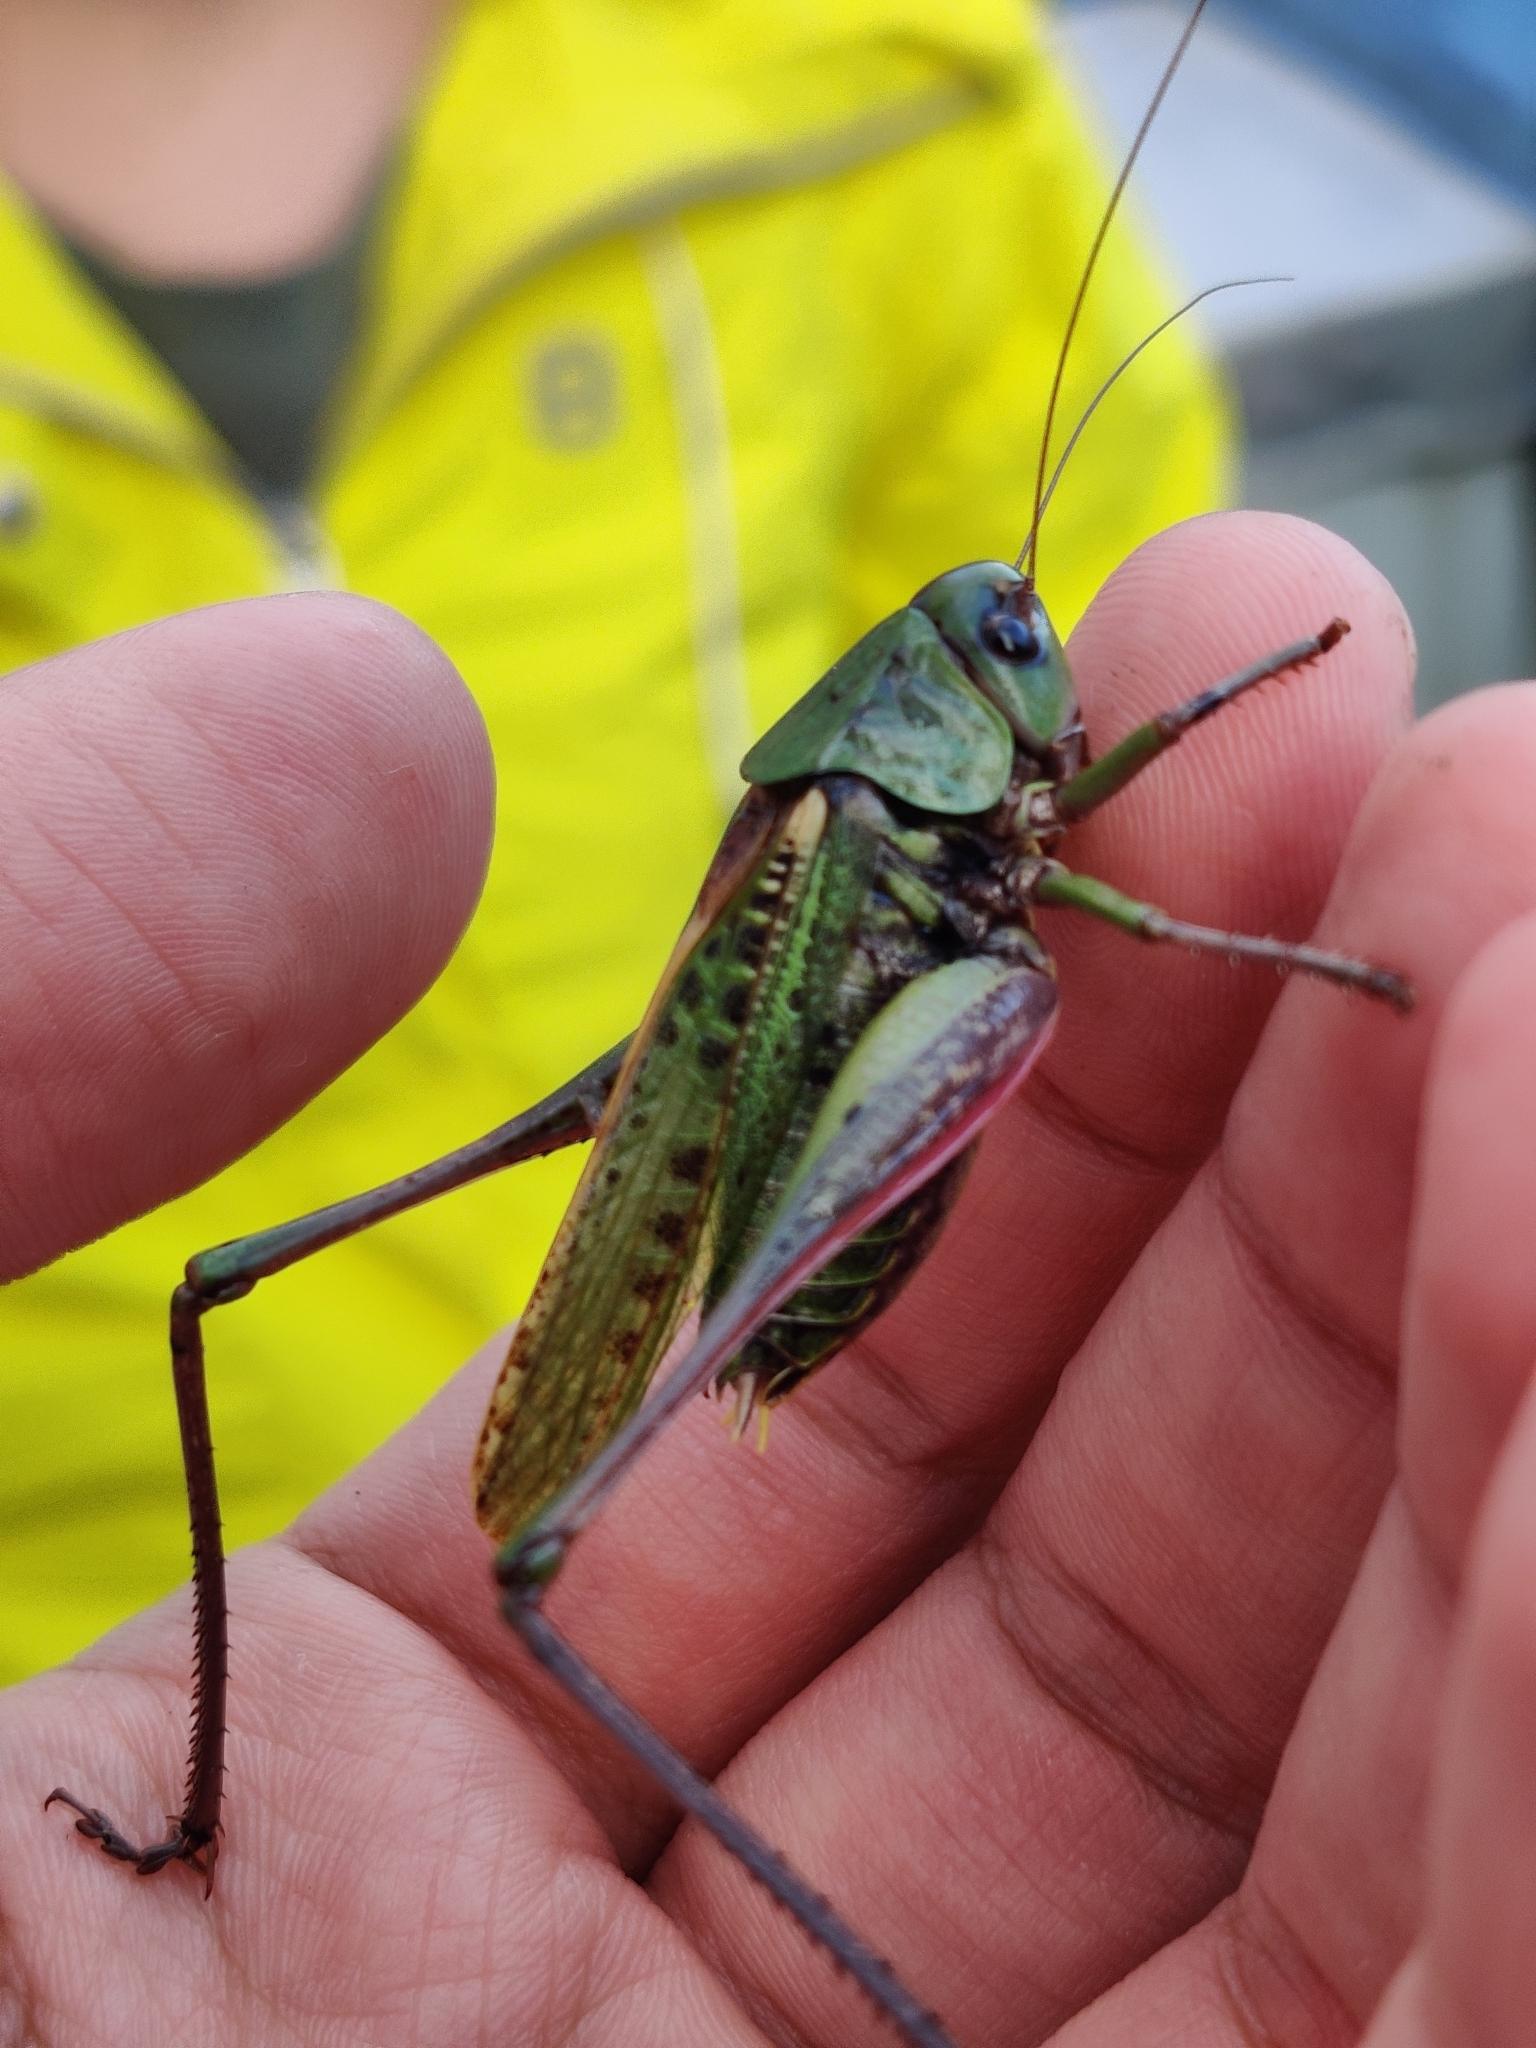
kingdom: Animalia
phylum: Arthropoda
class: Insecta
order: Orthoptera
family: Tettigoniidae
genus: Decticus
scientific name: Decticus verrucivorus
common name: Wart-biter
